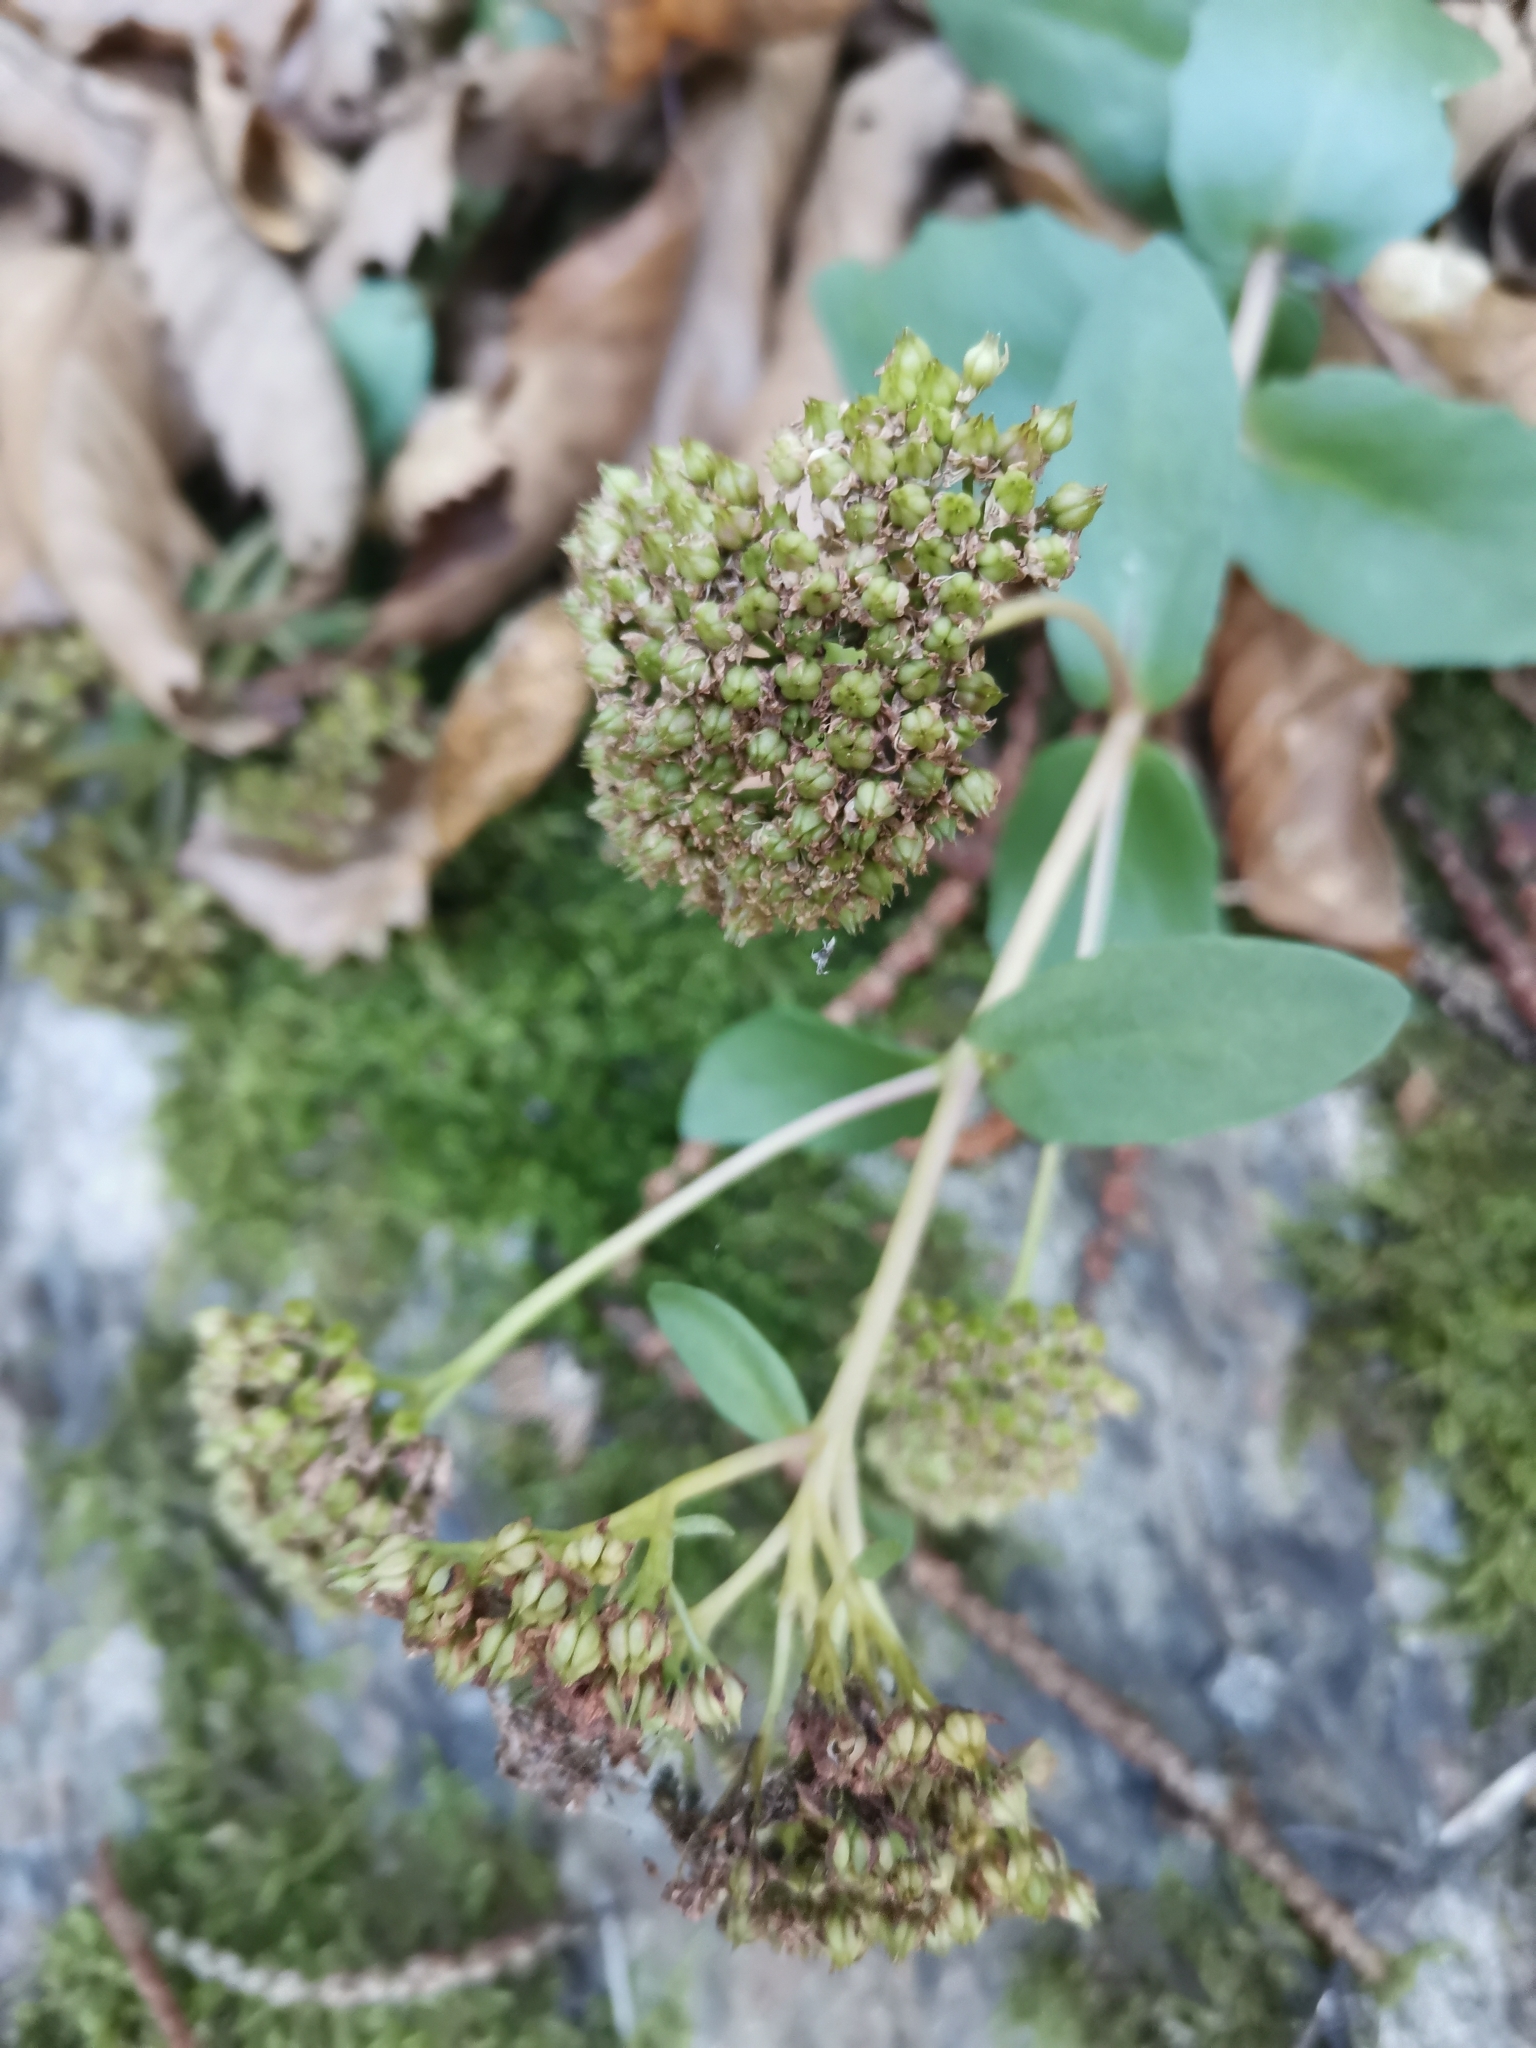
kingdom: Plantae
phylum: Tracheophyta
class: Magnoliopsida
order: Saxifragales
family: Crassulaceae
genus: Hylotelephium
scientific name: Hylotelephium maximum
